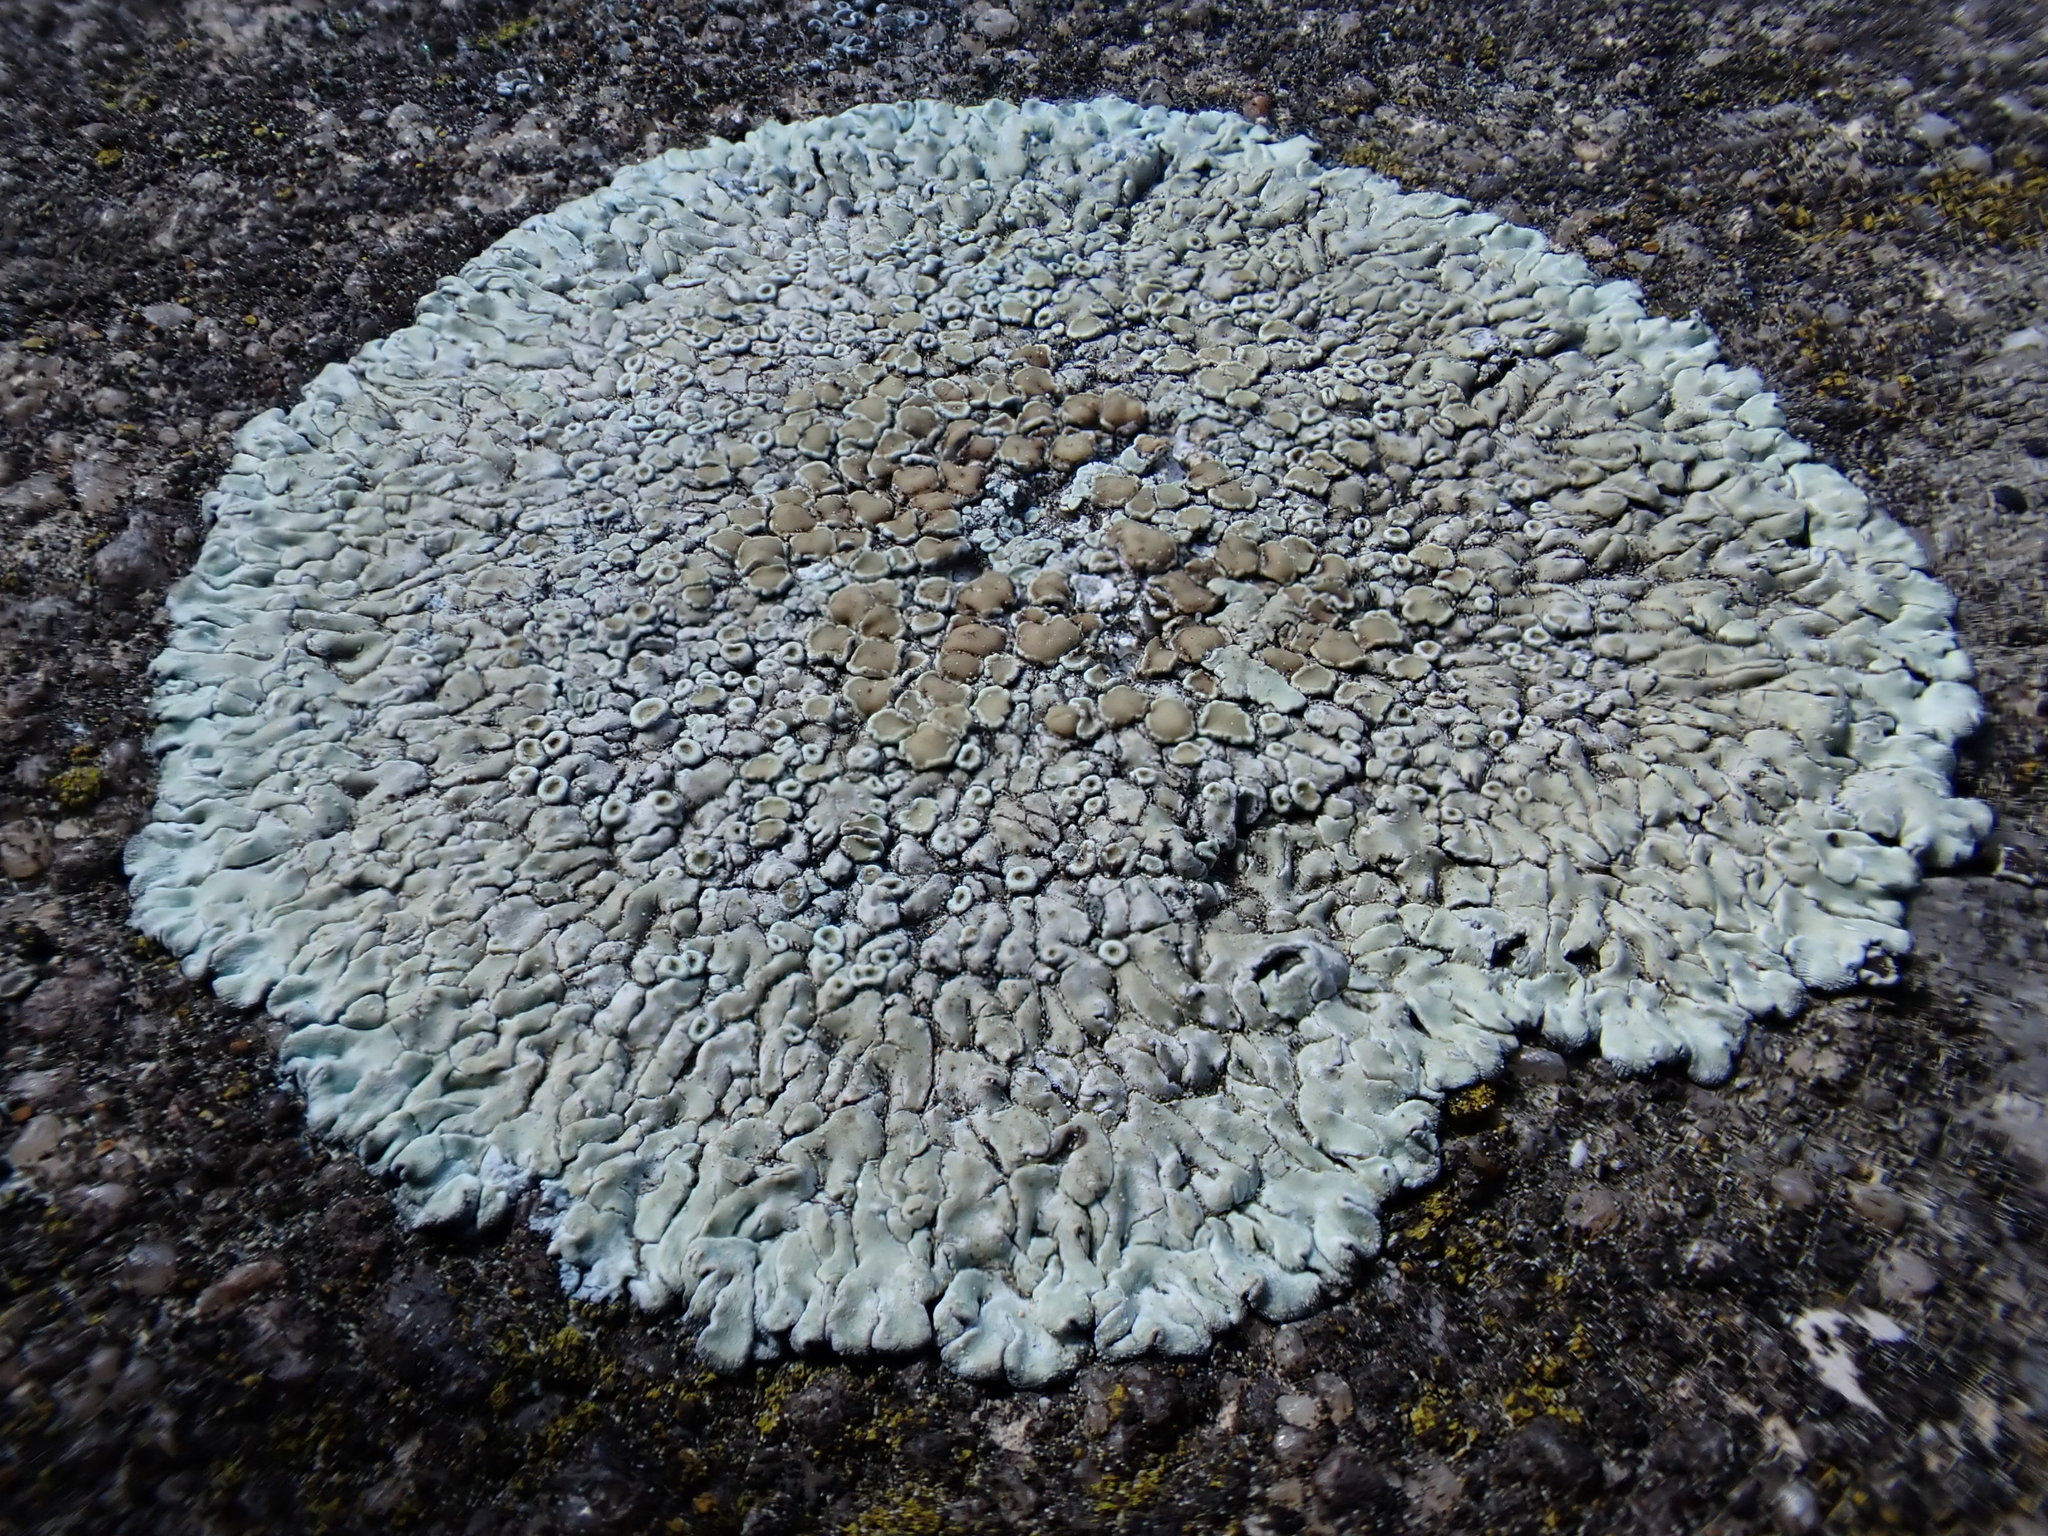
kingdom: Fungi
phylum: Ascomycota
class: Lecanoromycetes
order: Lecanorales
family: Lecanoraceae
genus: Protoparmeliopsis
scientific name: Protoparmeliopsis muralis
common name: Stonewall rim lichen
